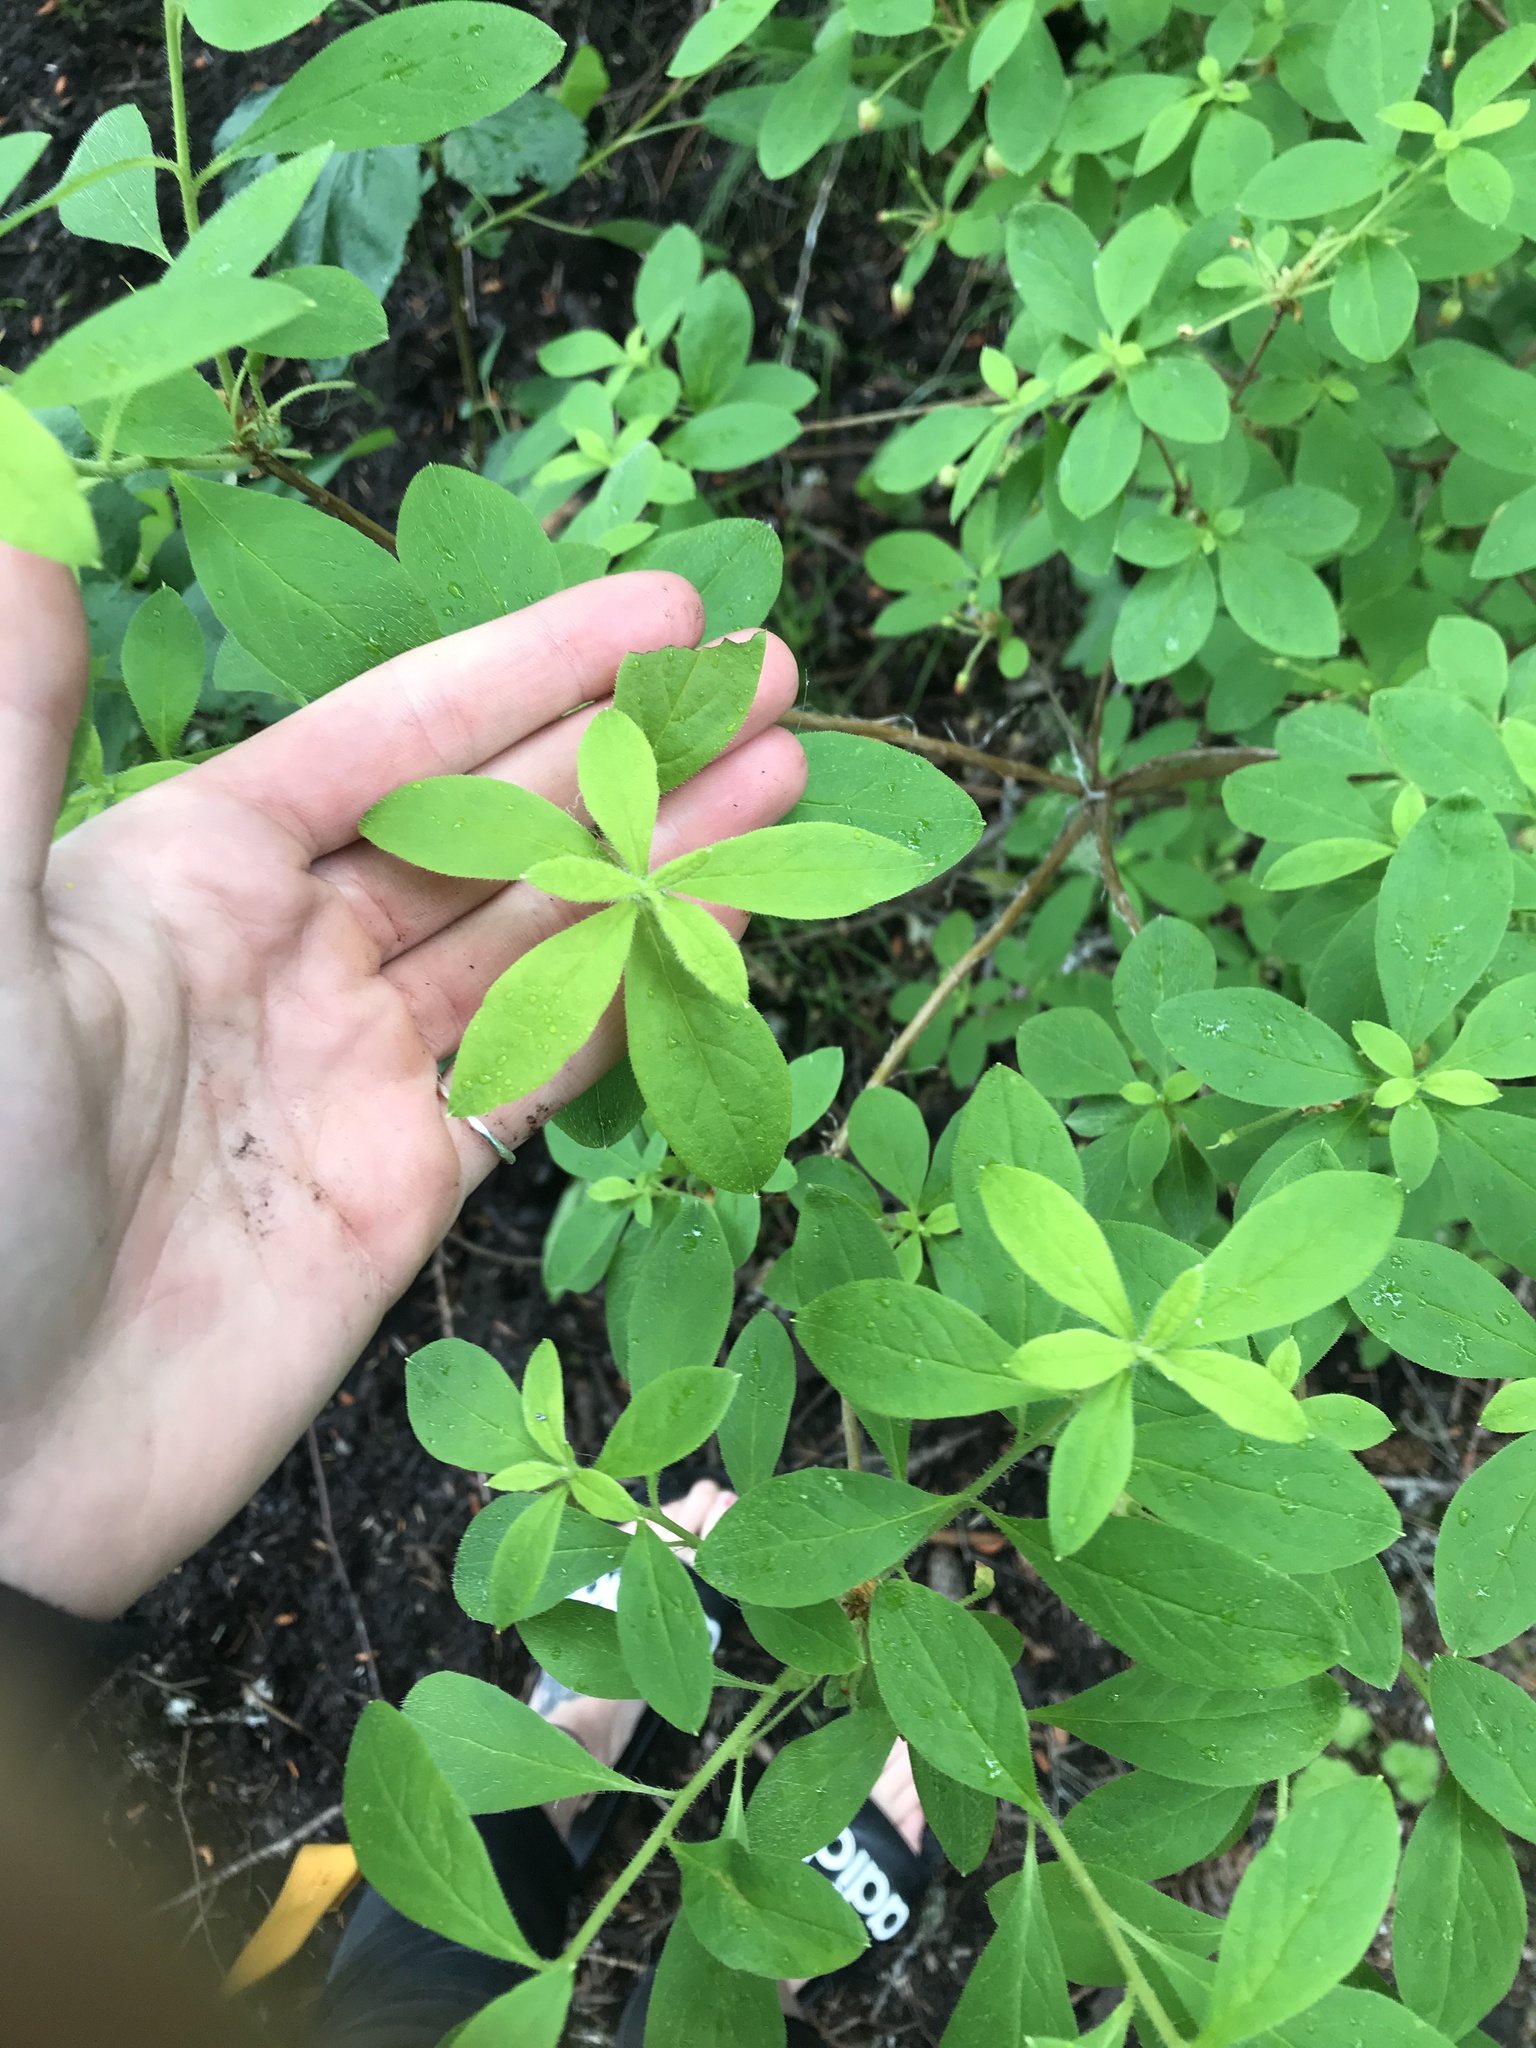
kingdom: Plantae
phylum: Tracheophyta
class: Magnoliopsida
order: Ericales
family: Ericaceae
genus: Rhododendron
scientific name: Rhododendron menziesii
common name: Pacific menziesia
